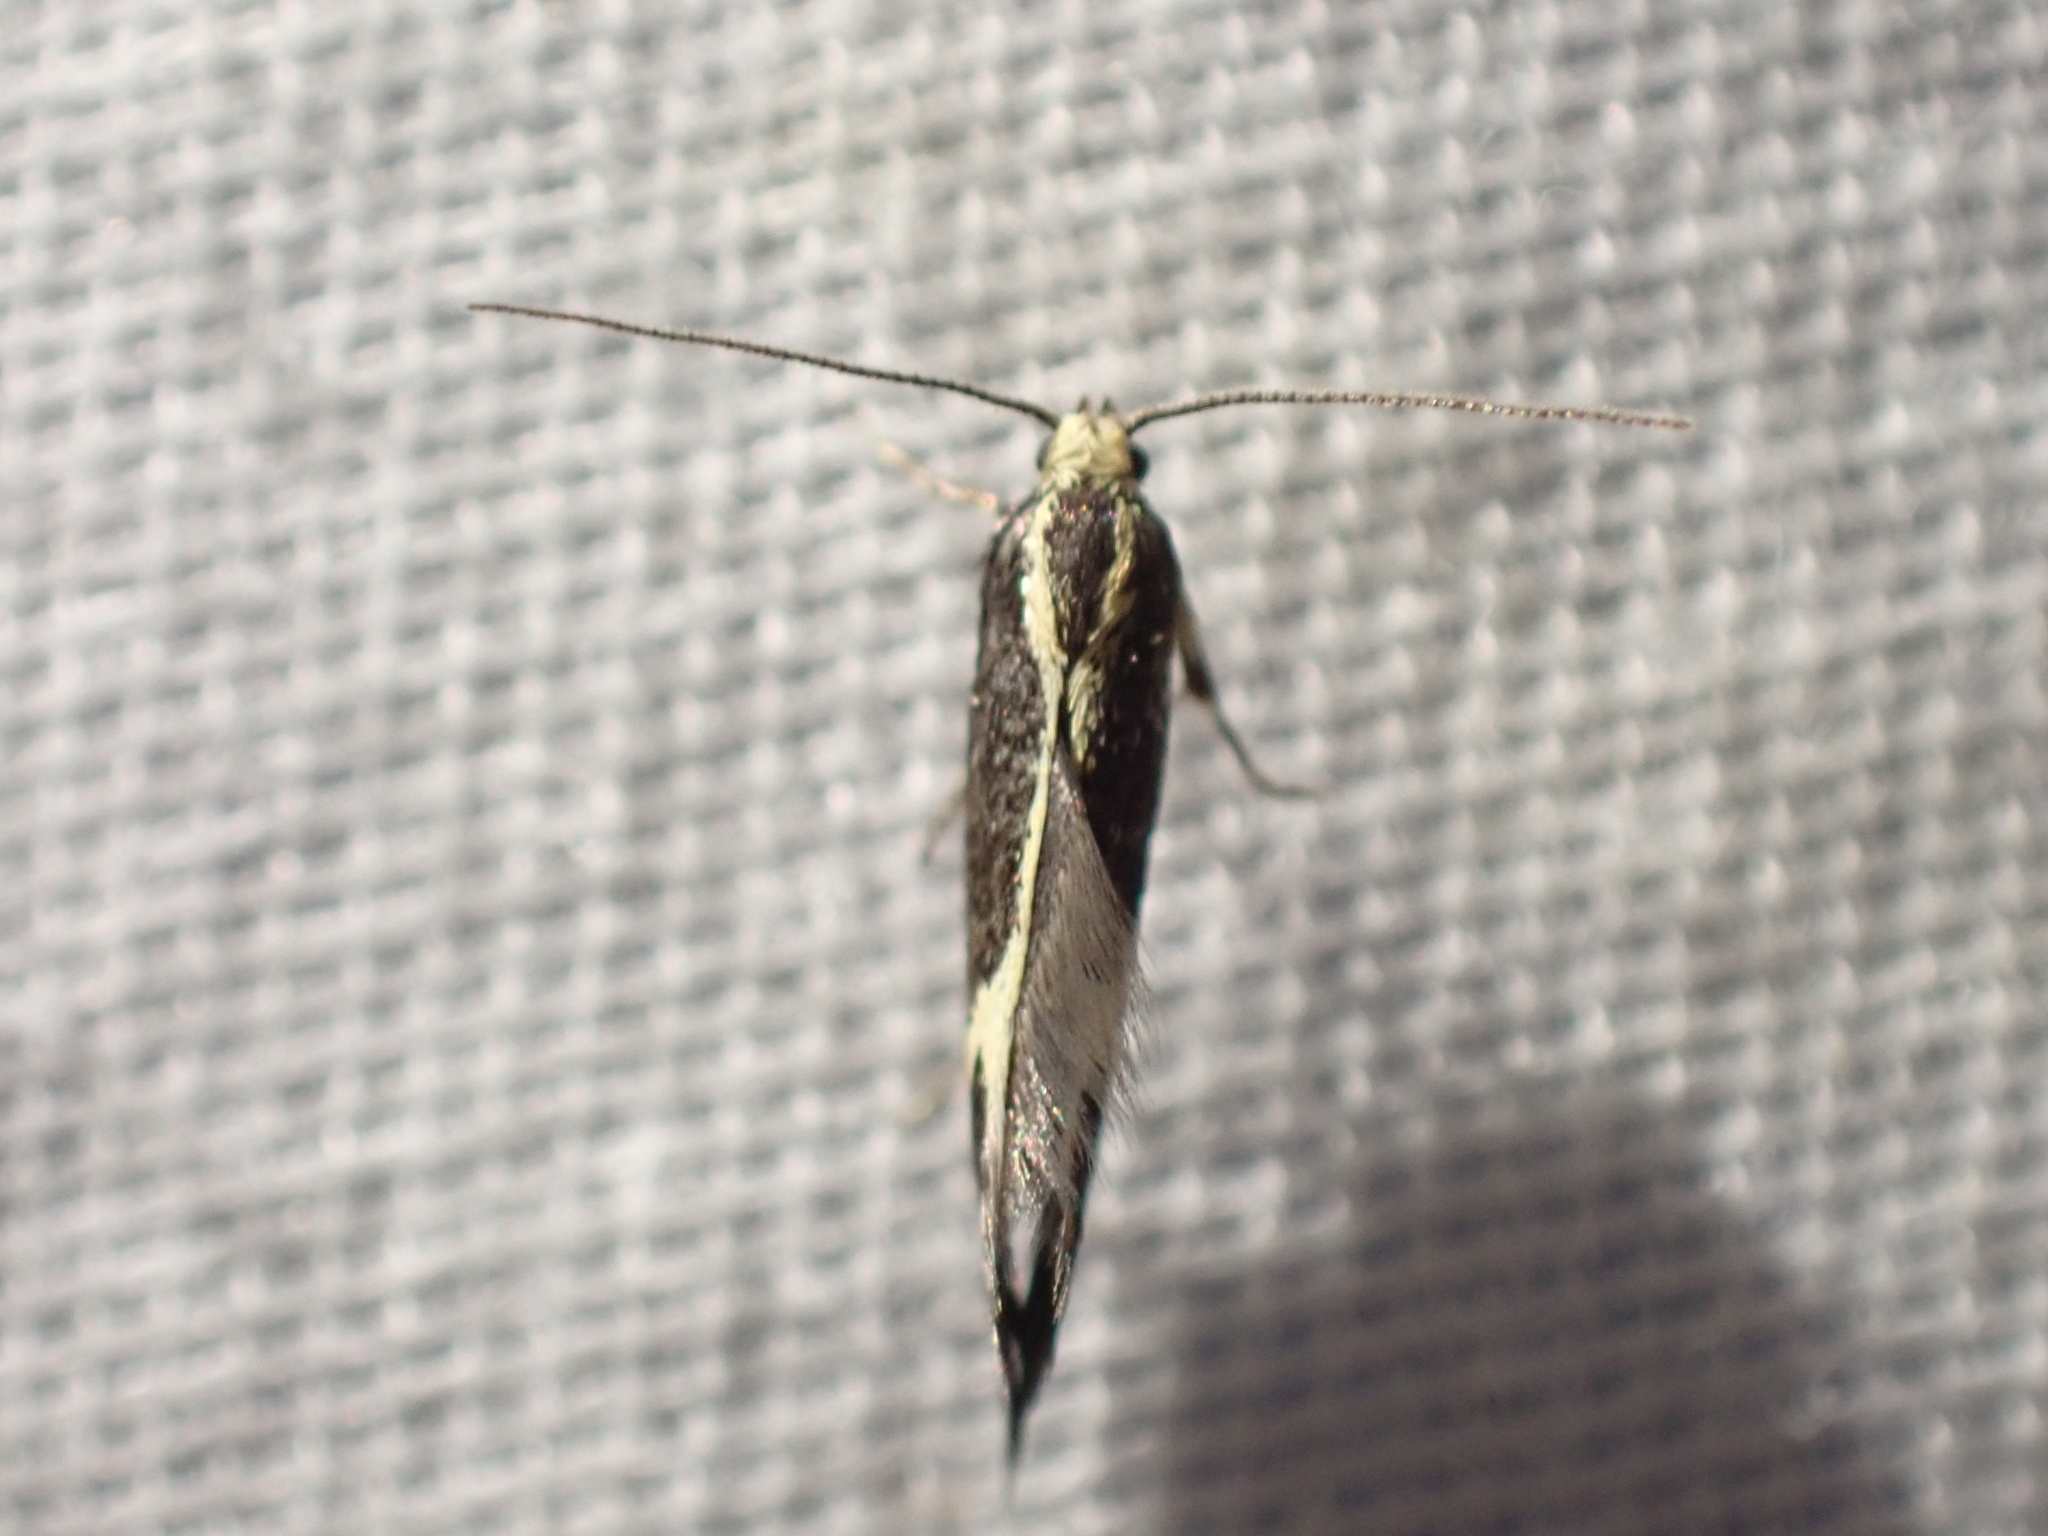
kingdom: Animalia
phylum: Arthropoda
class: Insecta
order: Lepidoptera
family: Oecophoridae
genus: Polix
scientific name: Polix coloradella
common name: Skunk moth
